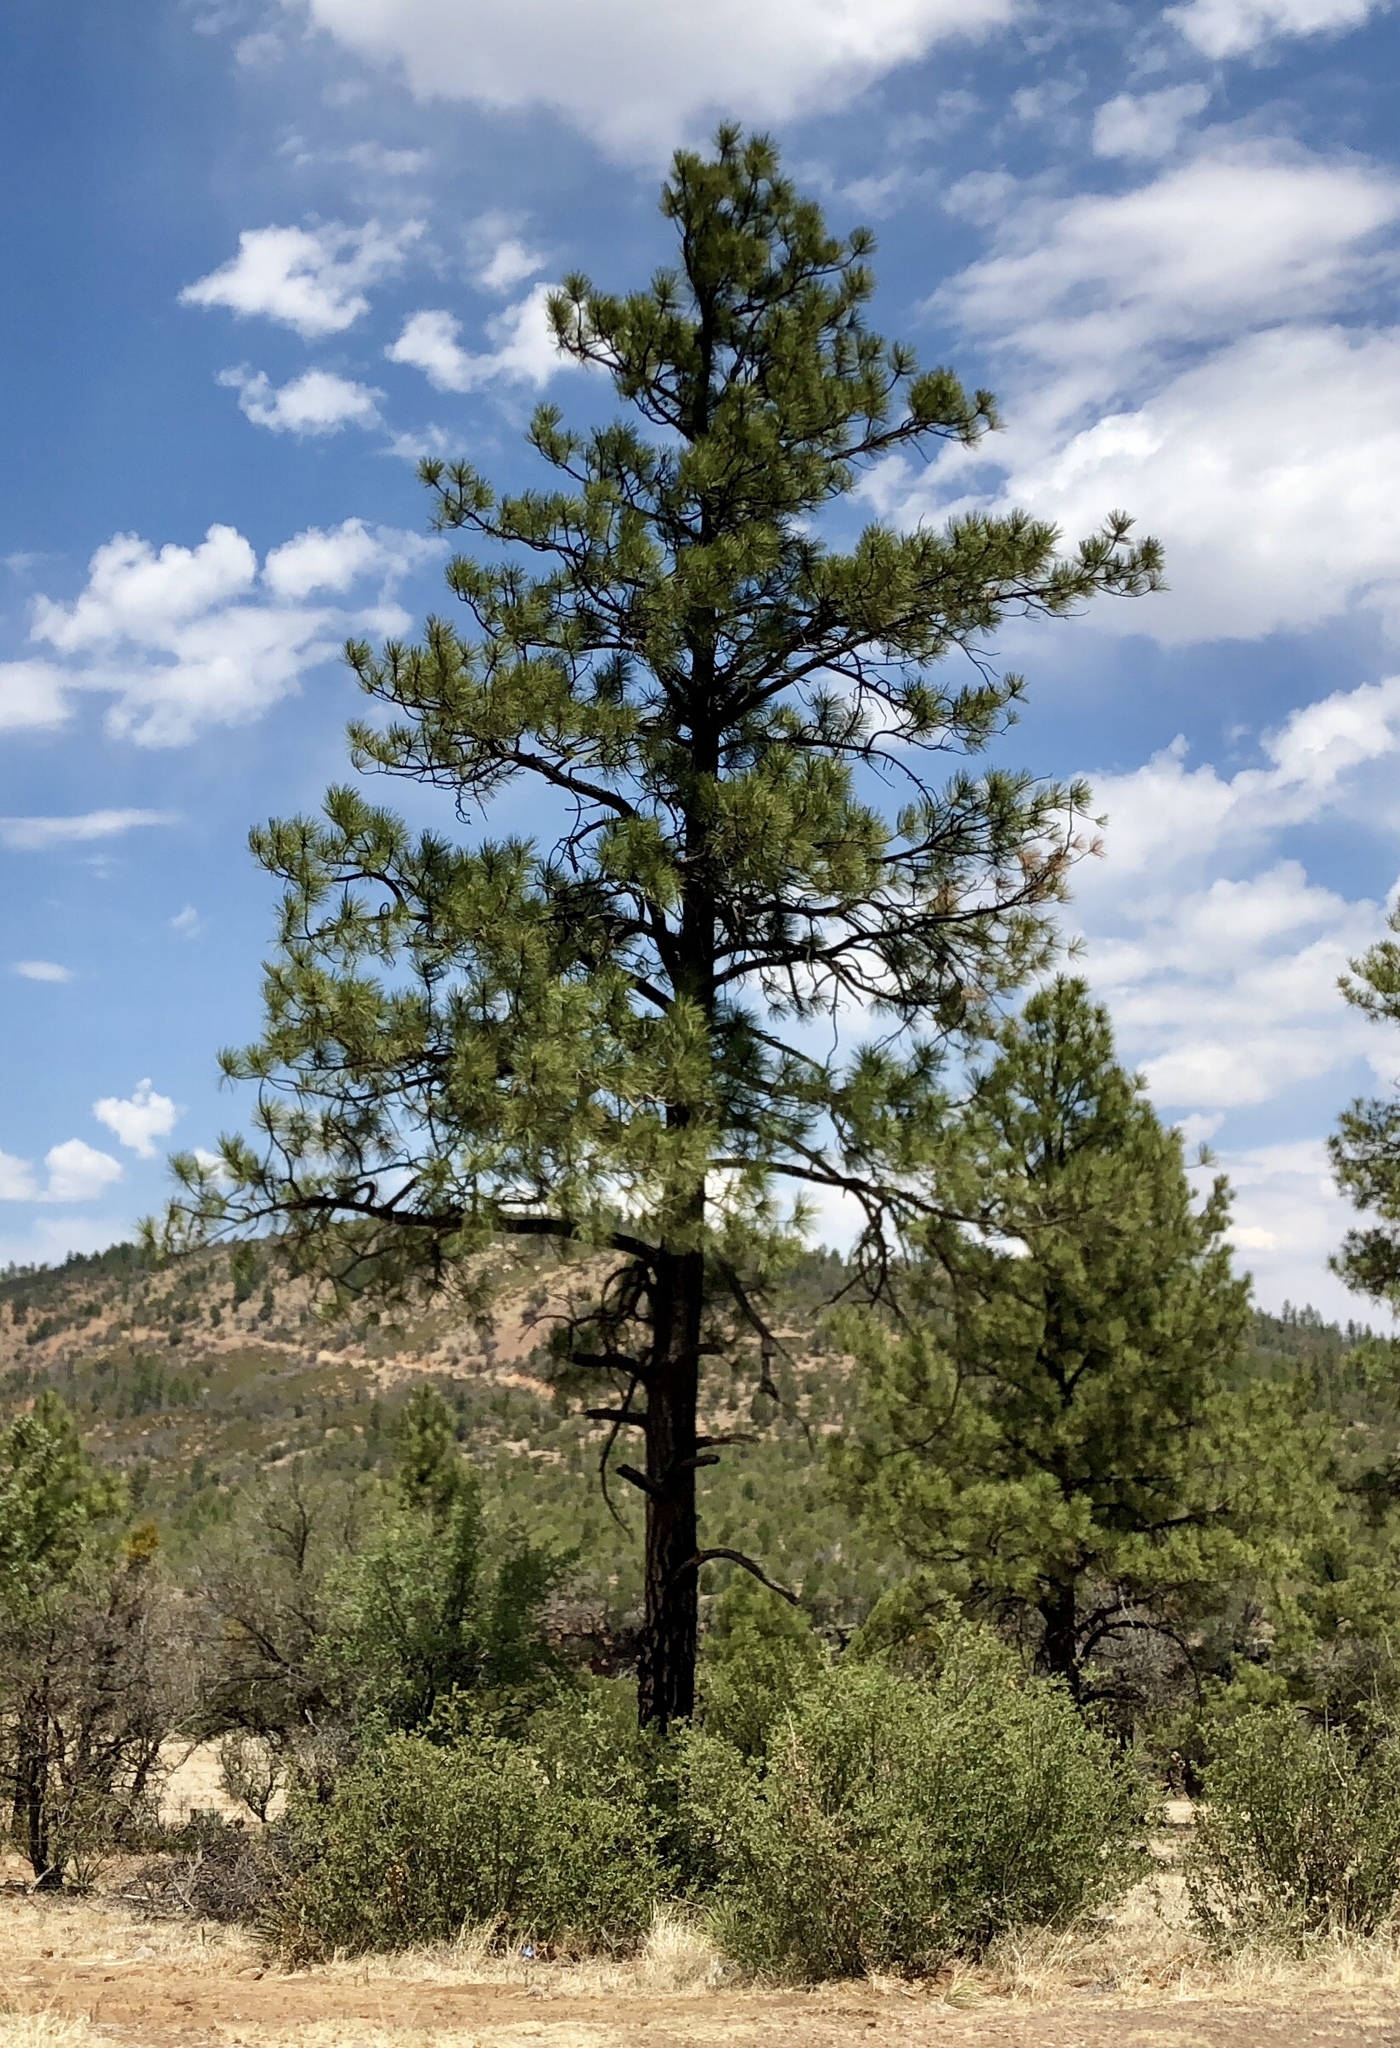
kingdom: Plantae
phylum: Tracheophyta
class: Pinopsida
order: Pinales
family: Pinaceae
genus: Pinus
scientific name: Pinus ponderosa
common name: Western yellow-pine
